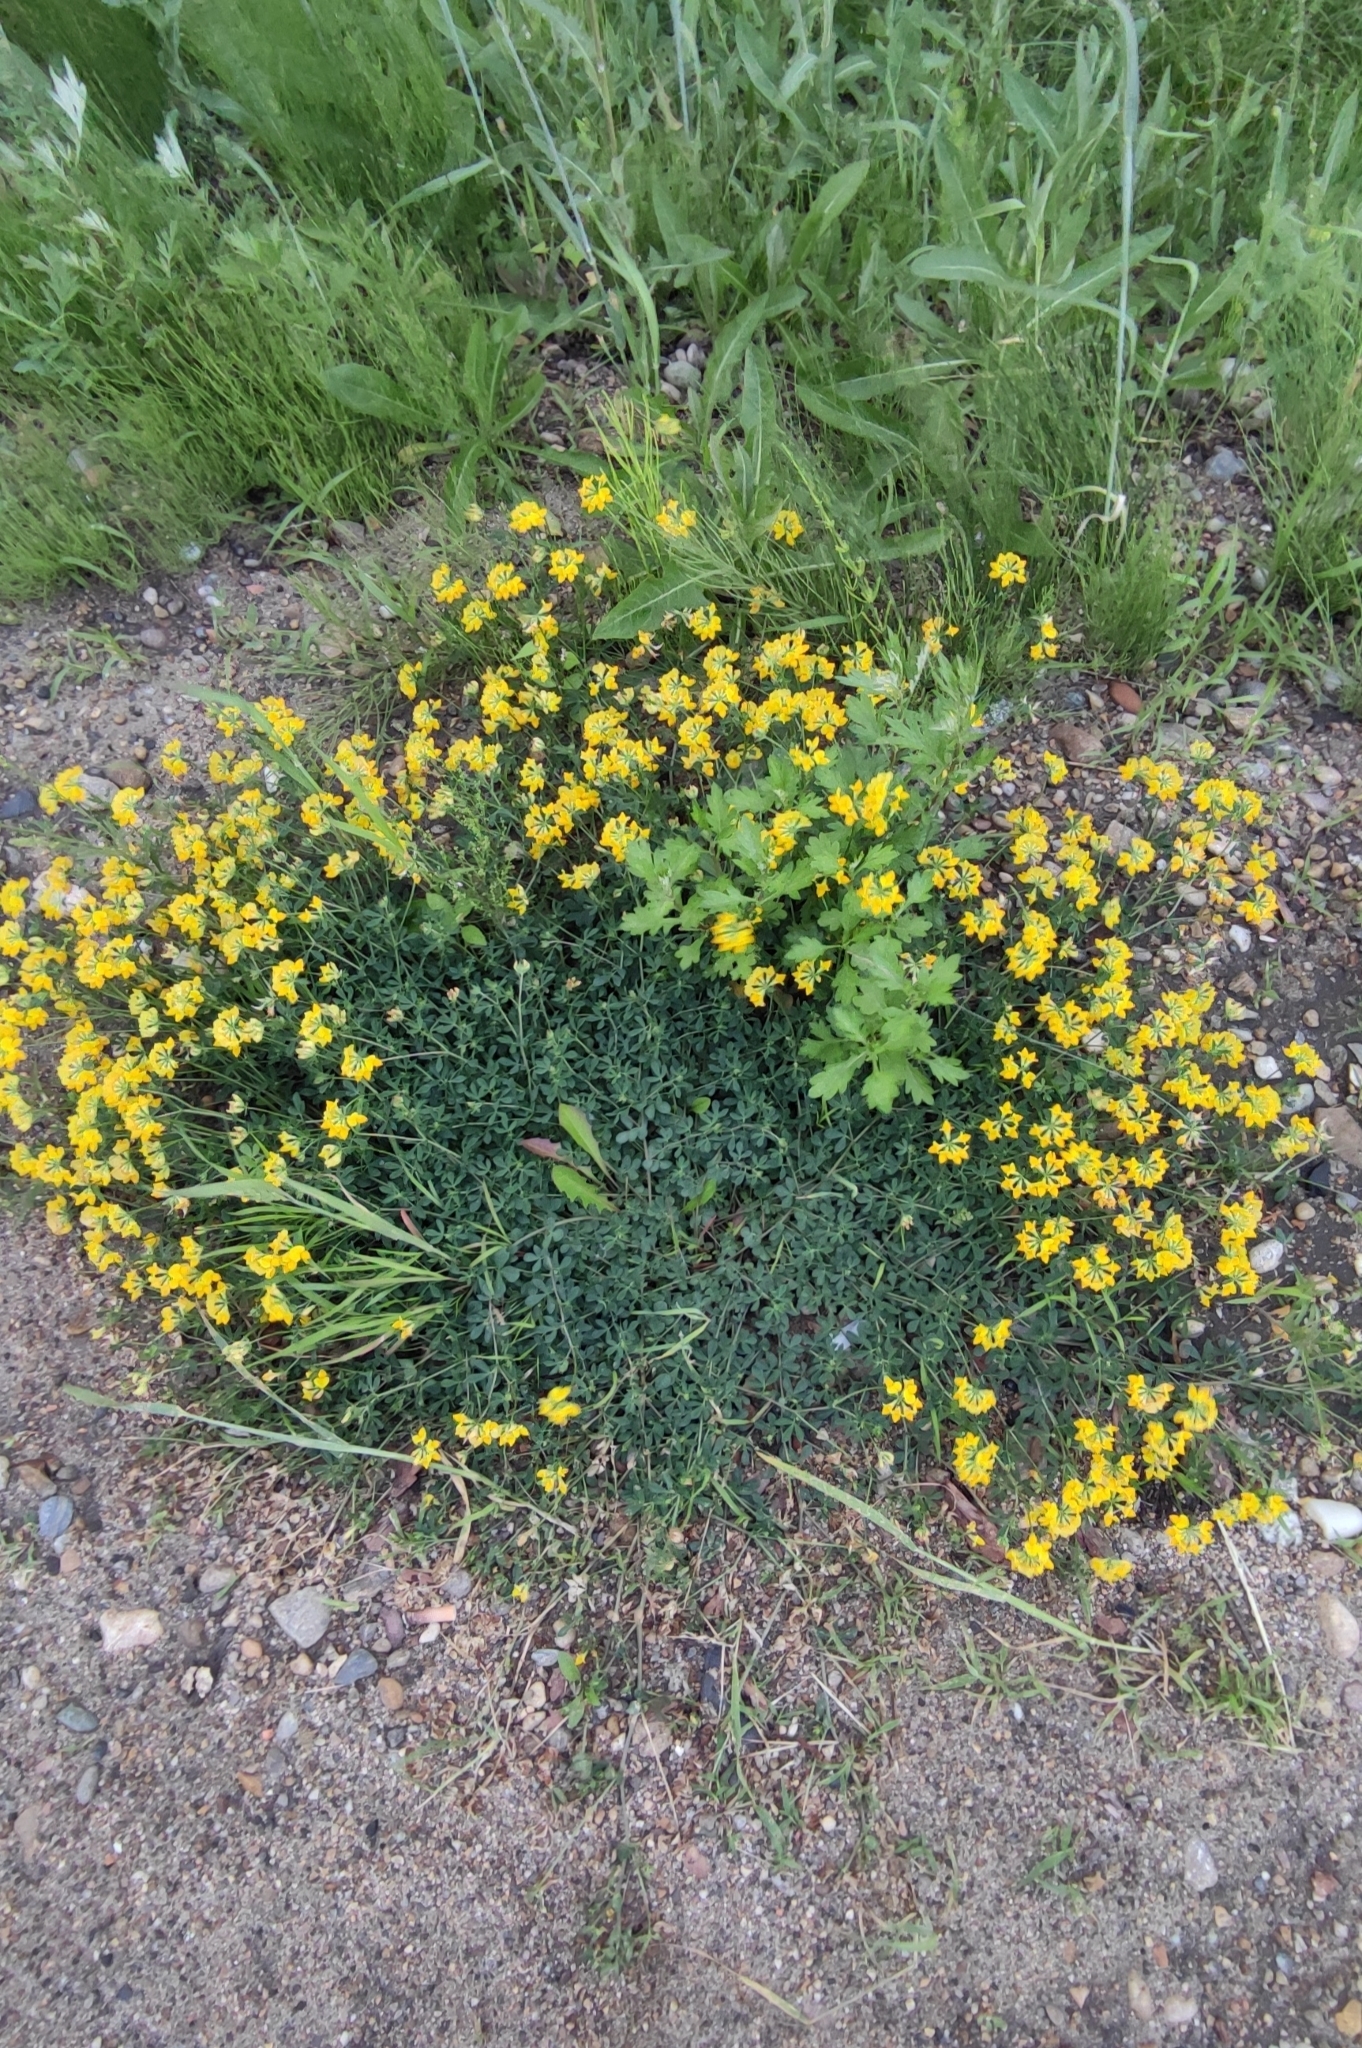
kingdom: Plantae
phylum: Tracheophyta
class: Magnoliopsida
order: Fabales
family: Fabaceae
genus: Lotus
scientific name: Lotus corniculatus
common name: Common bird's-foot-trefoil
